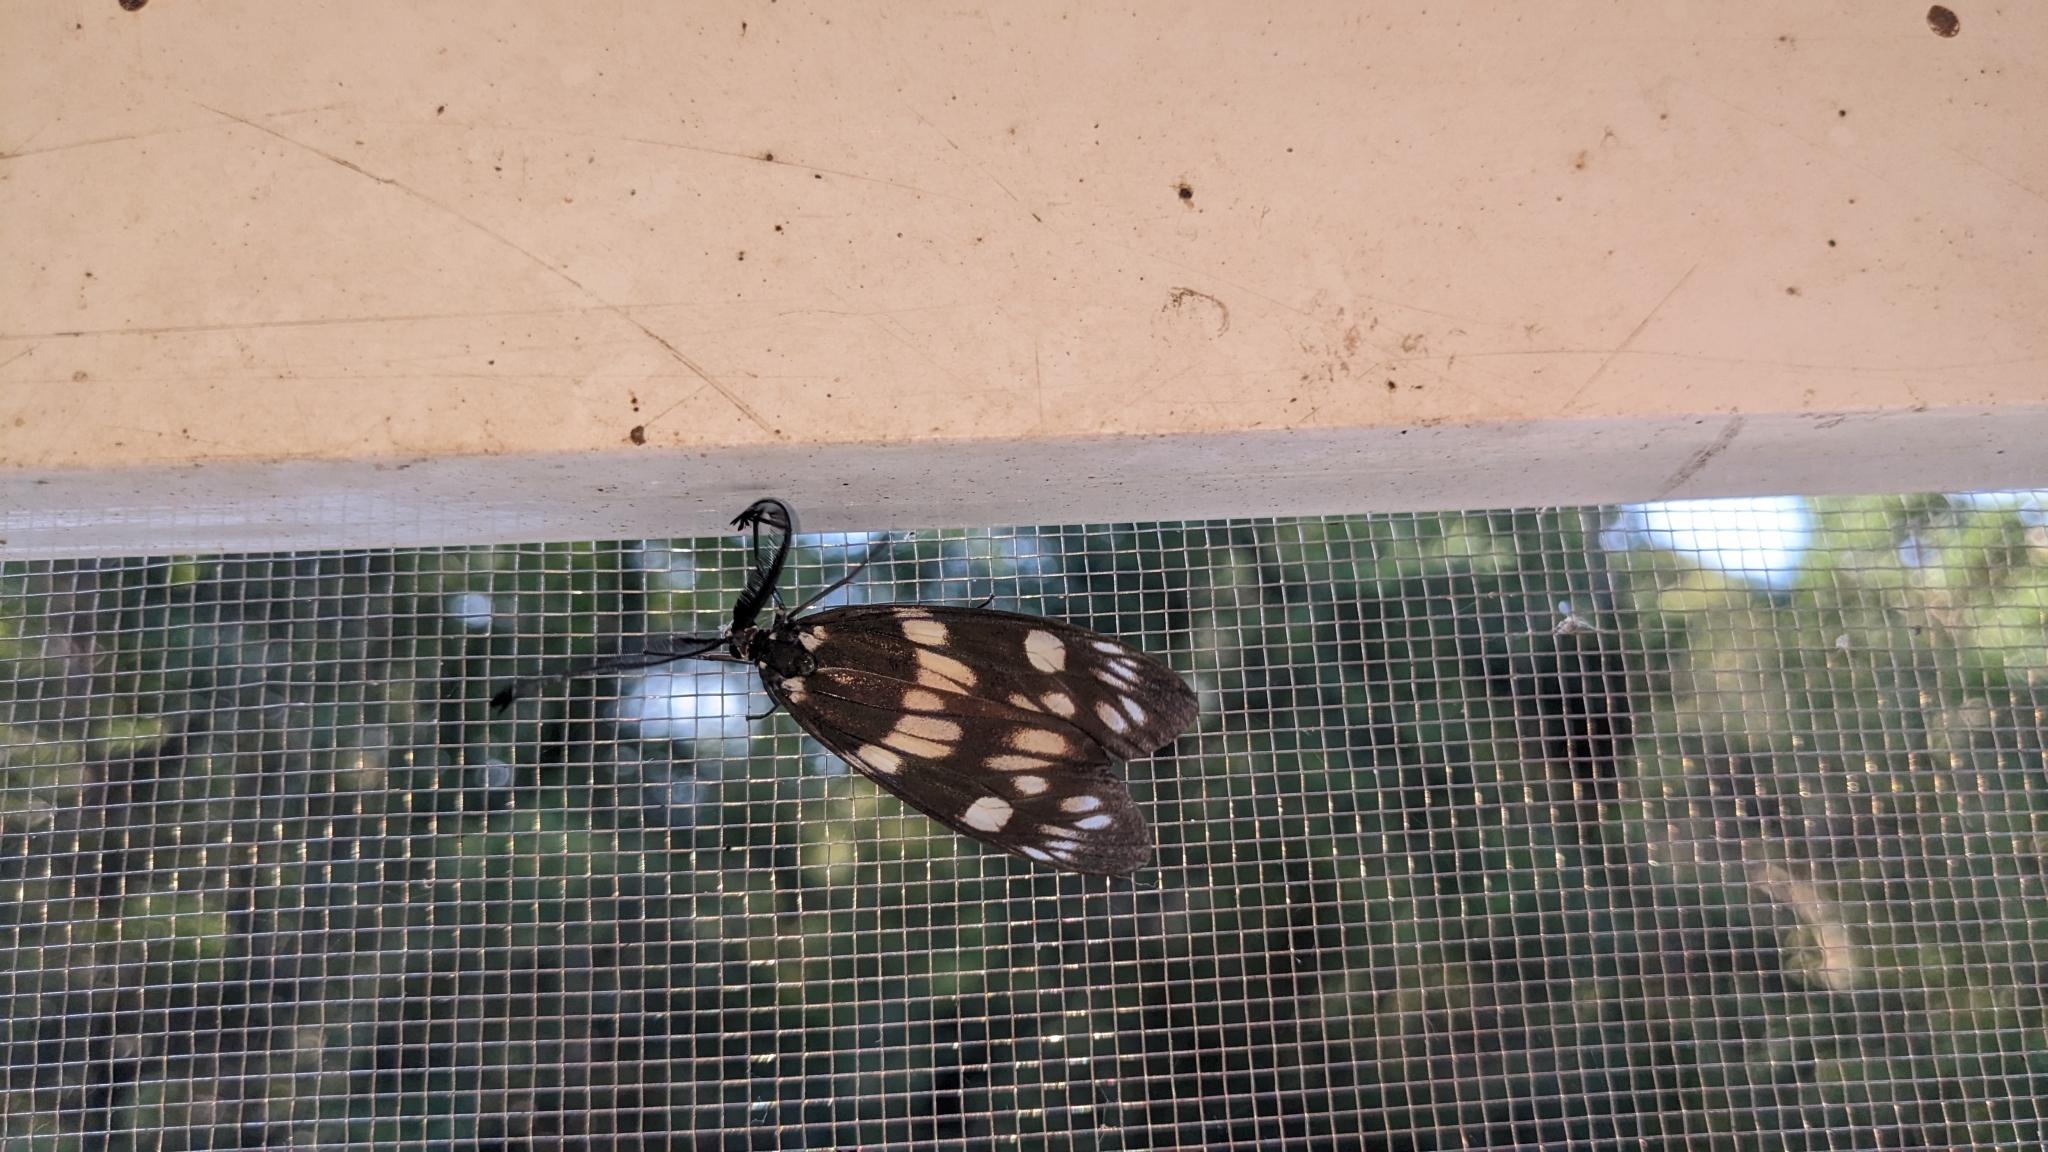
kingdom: Animalia
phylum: Arthropoda
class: Insecta
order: Lepidoptera
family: Zygaenidae
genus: Eterusia
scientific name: Eterusia aedea
